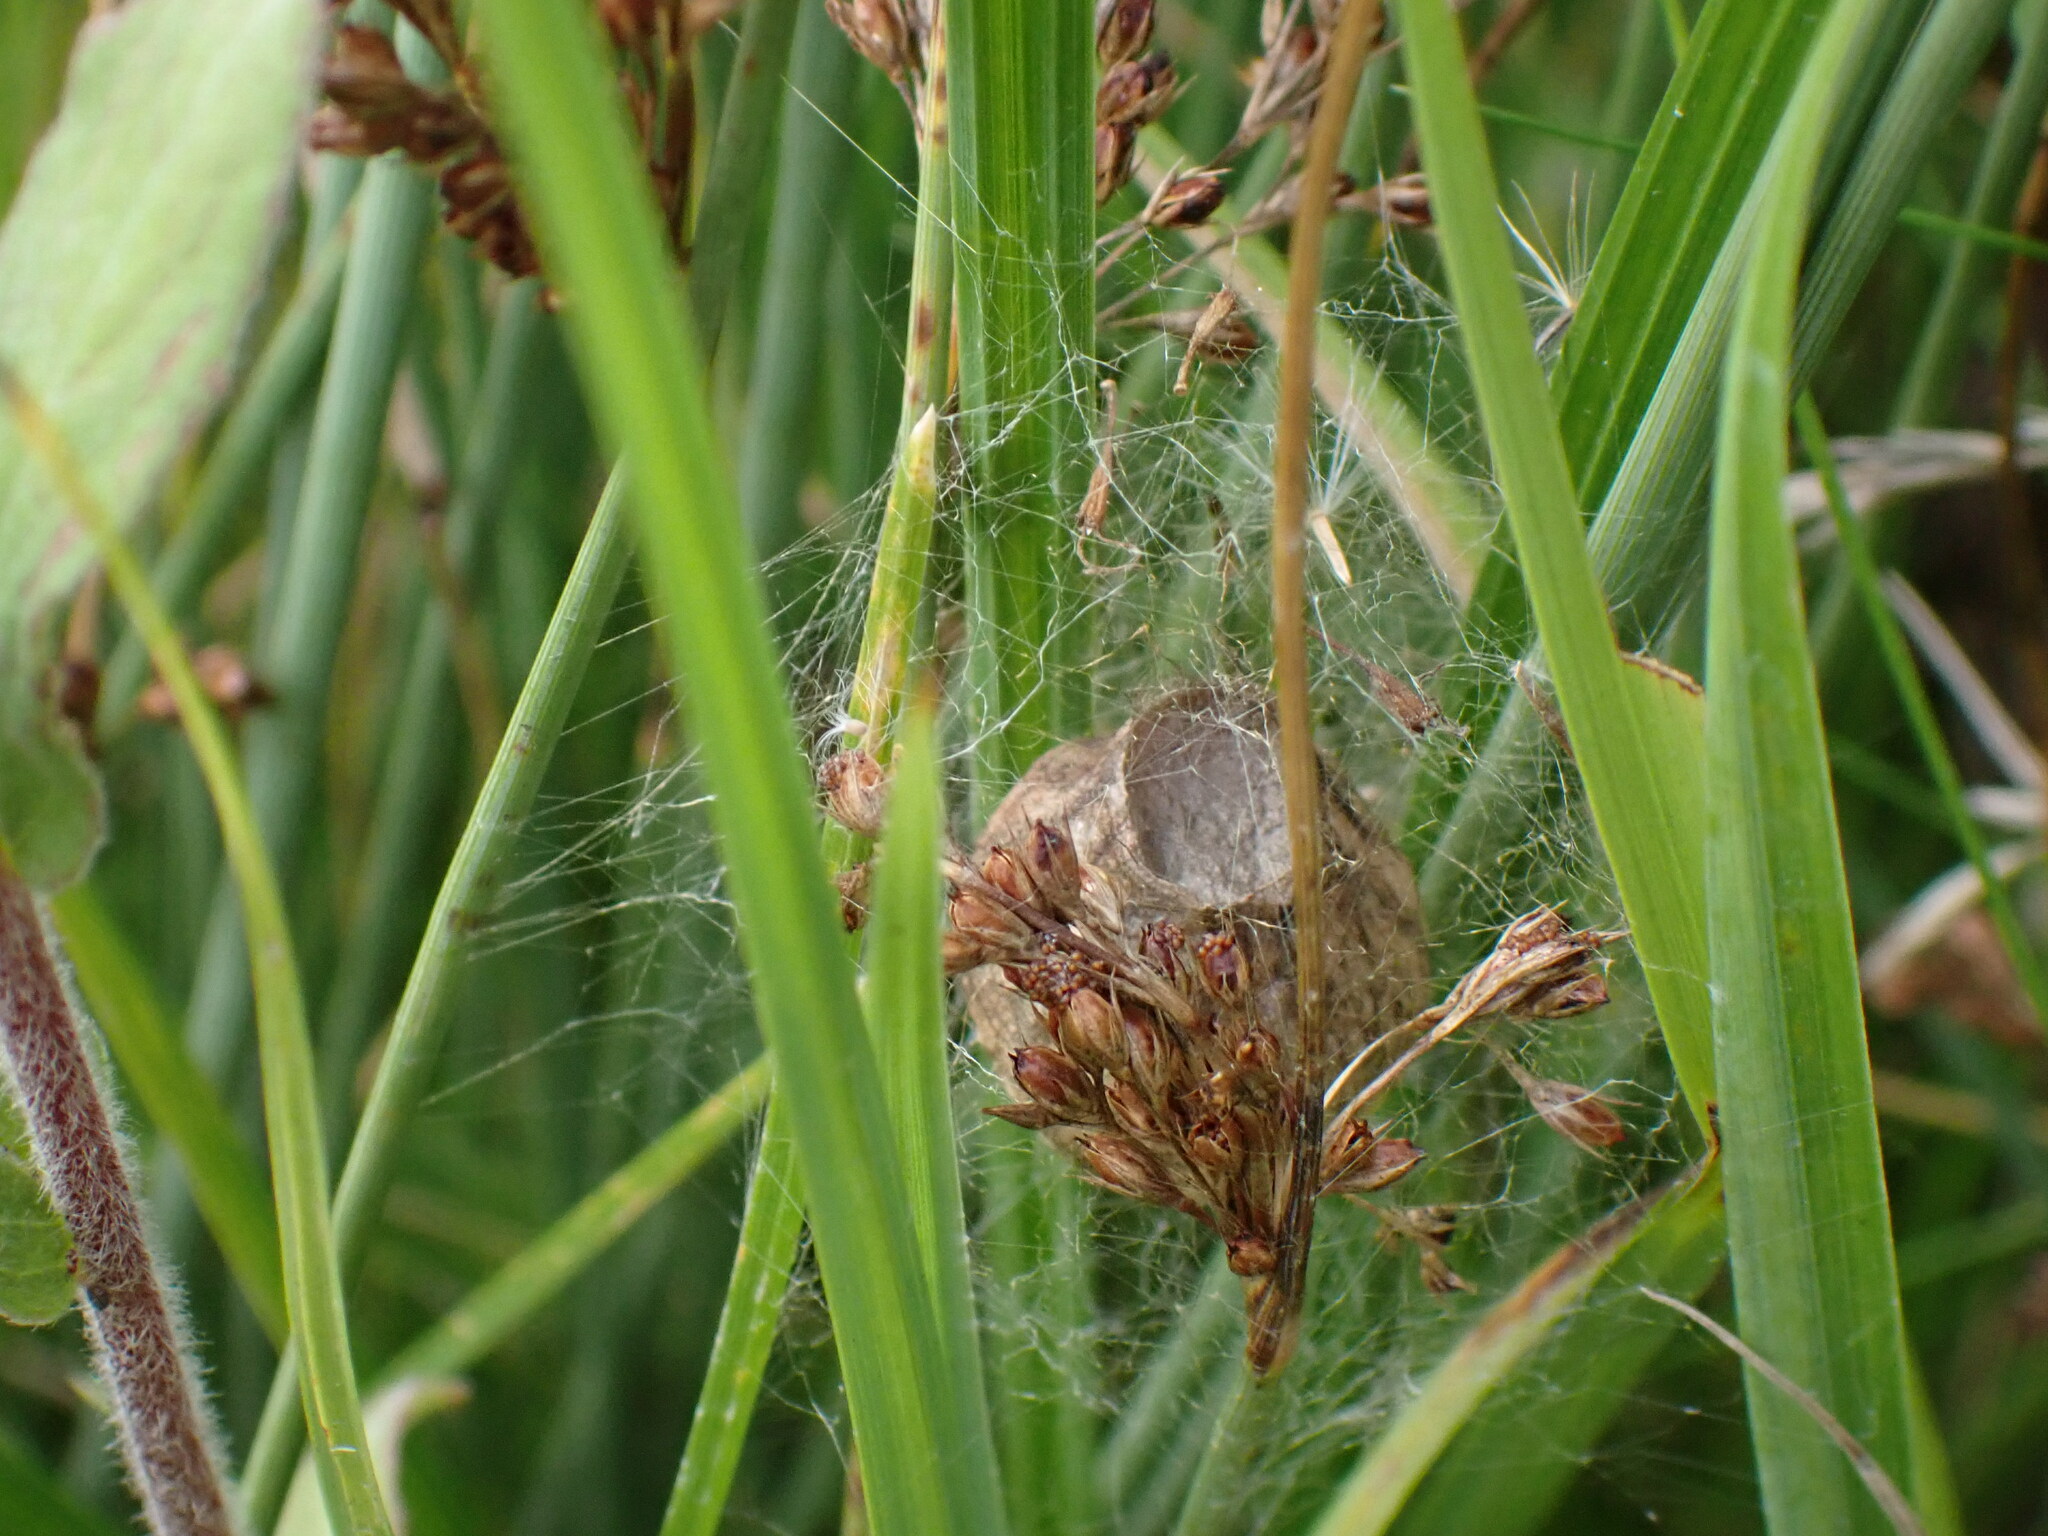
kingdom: Animalia
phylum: Arthropoda
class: Arachnida
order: Araneae
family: Araneidae
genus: Argiope
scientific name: Argiope bruennichi
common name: Wasp spider
